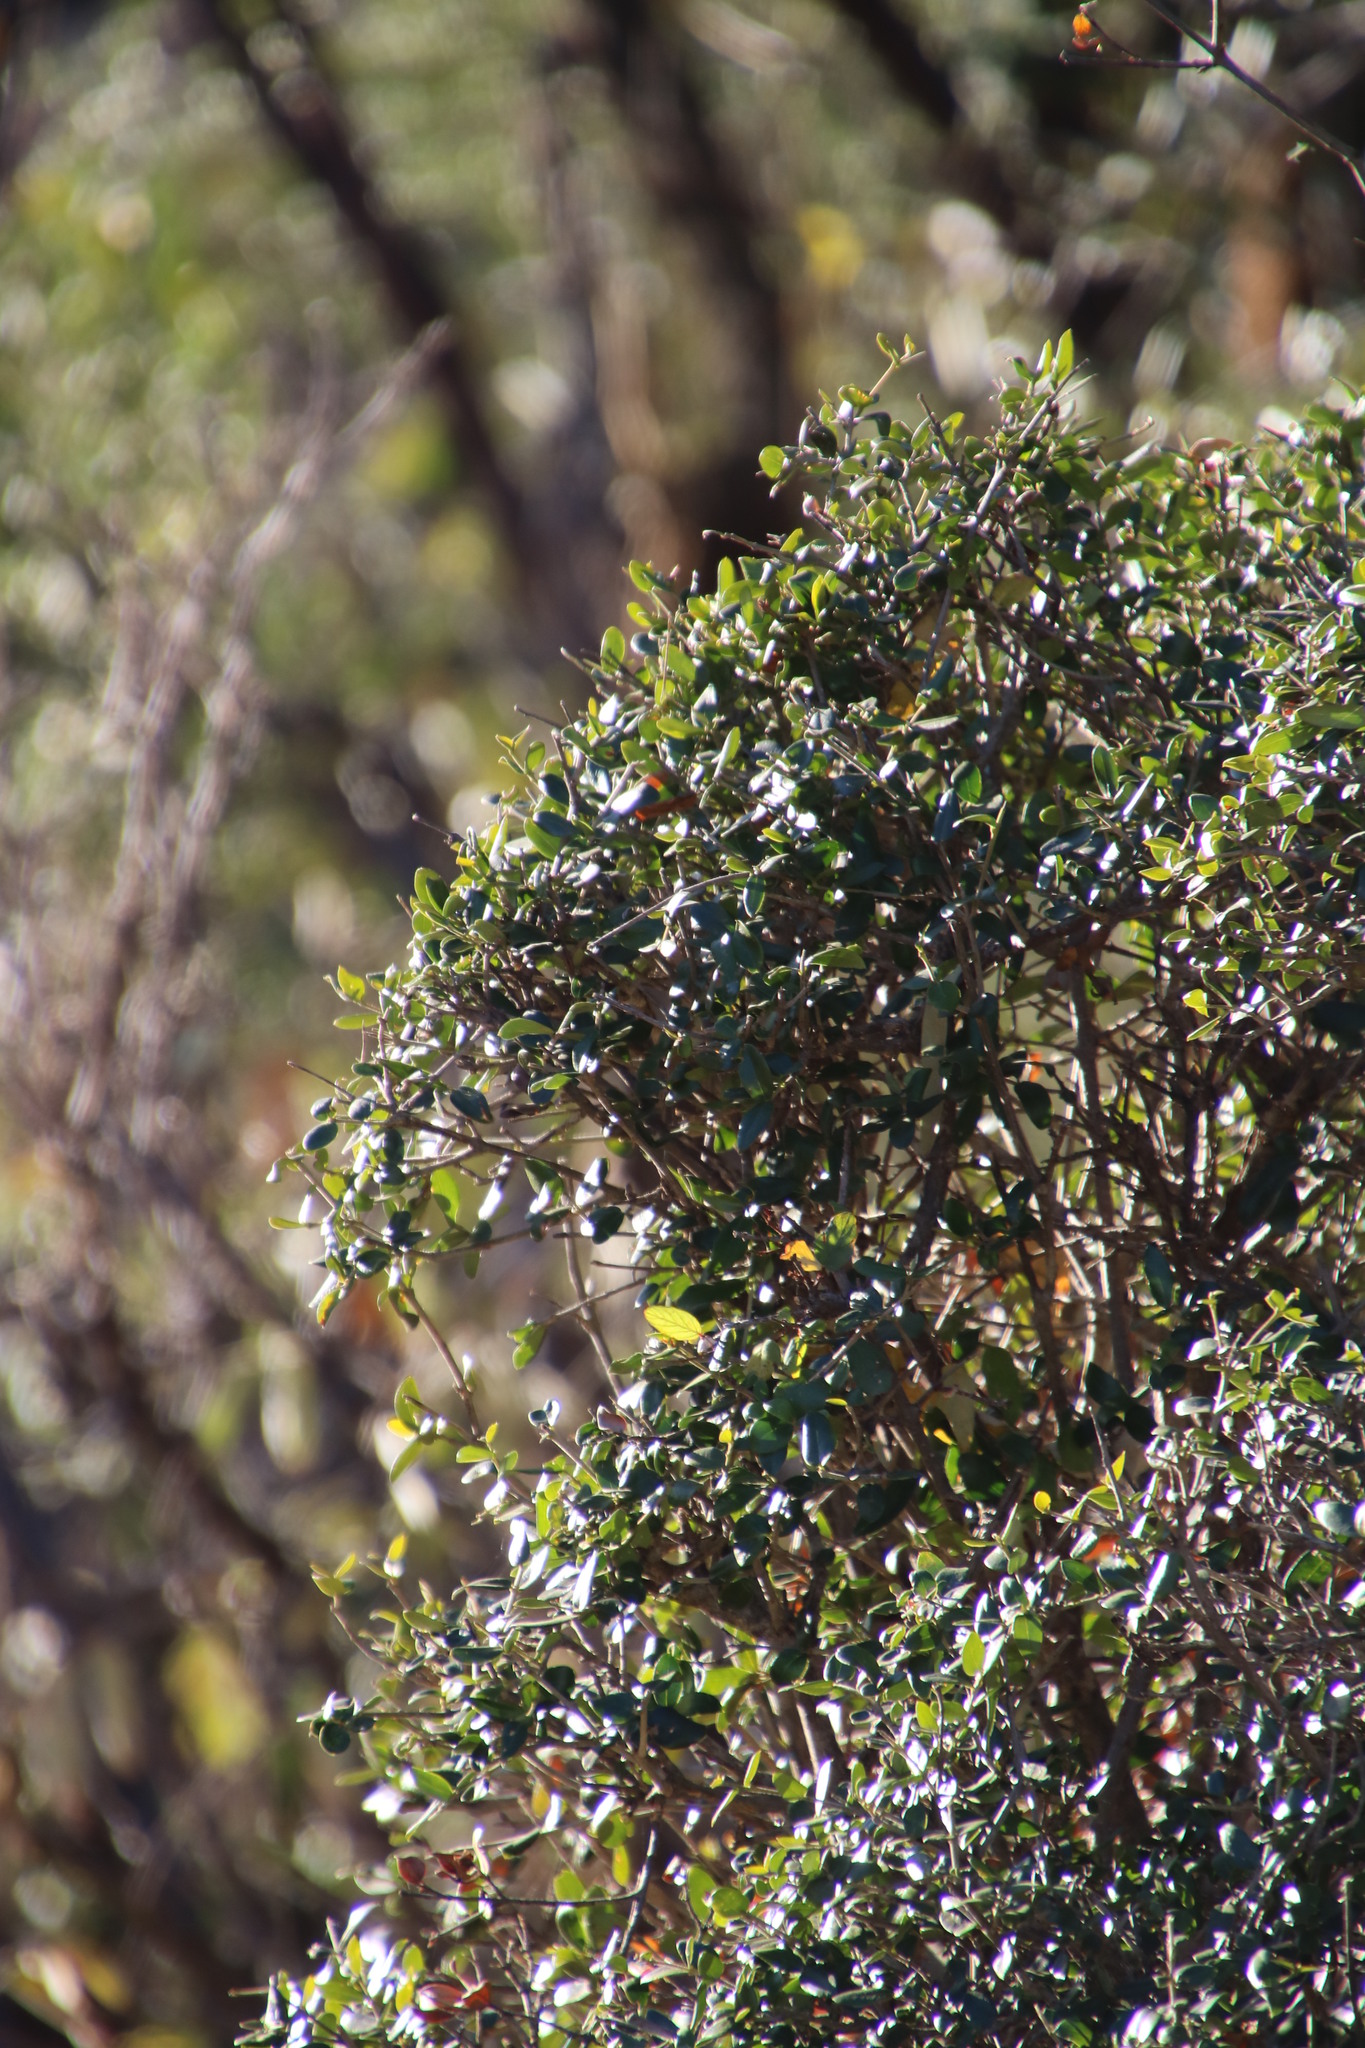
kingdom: Plantae
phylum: Tracheophyta
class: Magnoliopsida
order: Lamiales
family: Oleaceae
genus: Olea
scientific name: Olea europaea
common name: Olive
